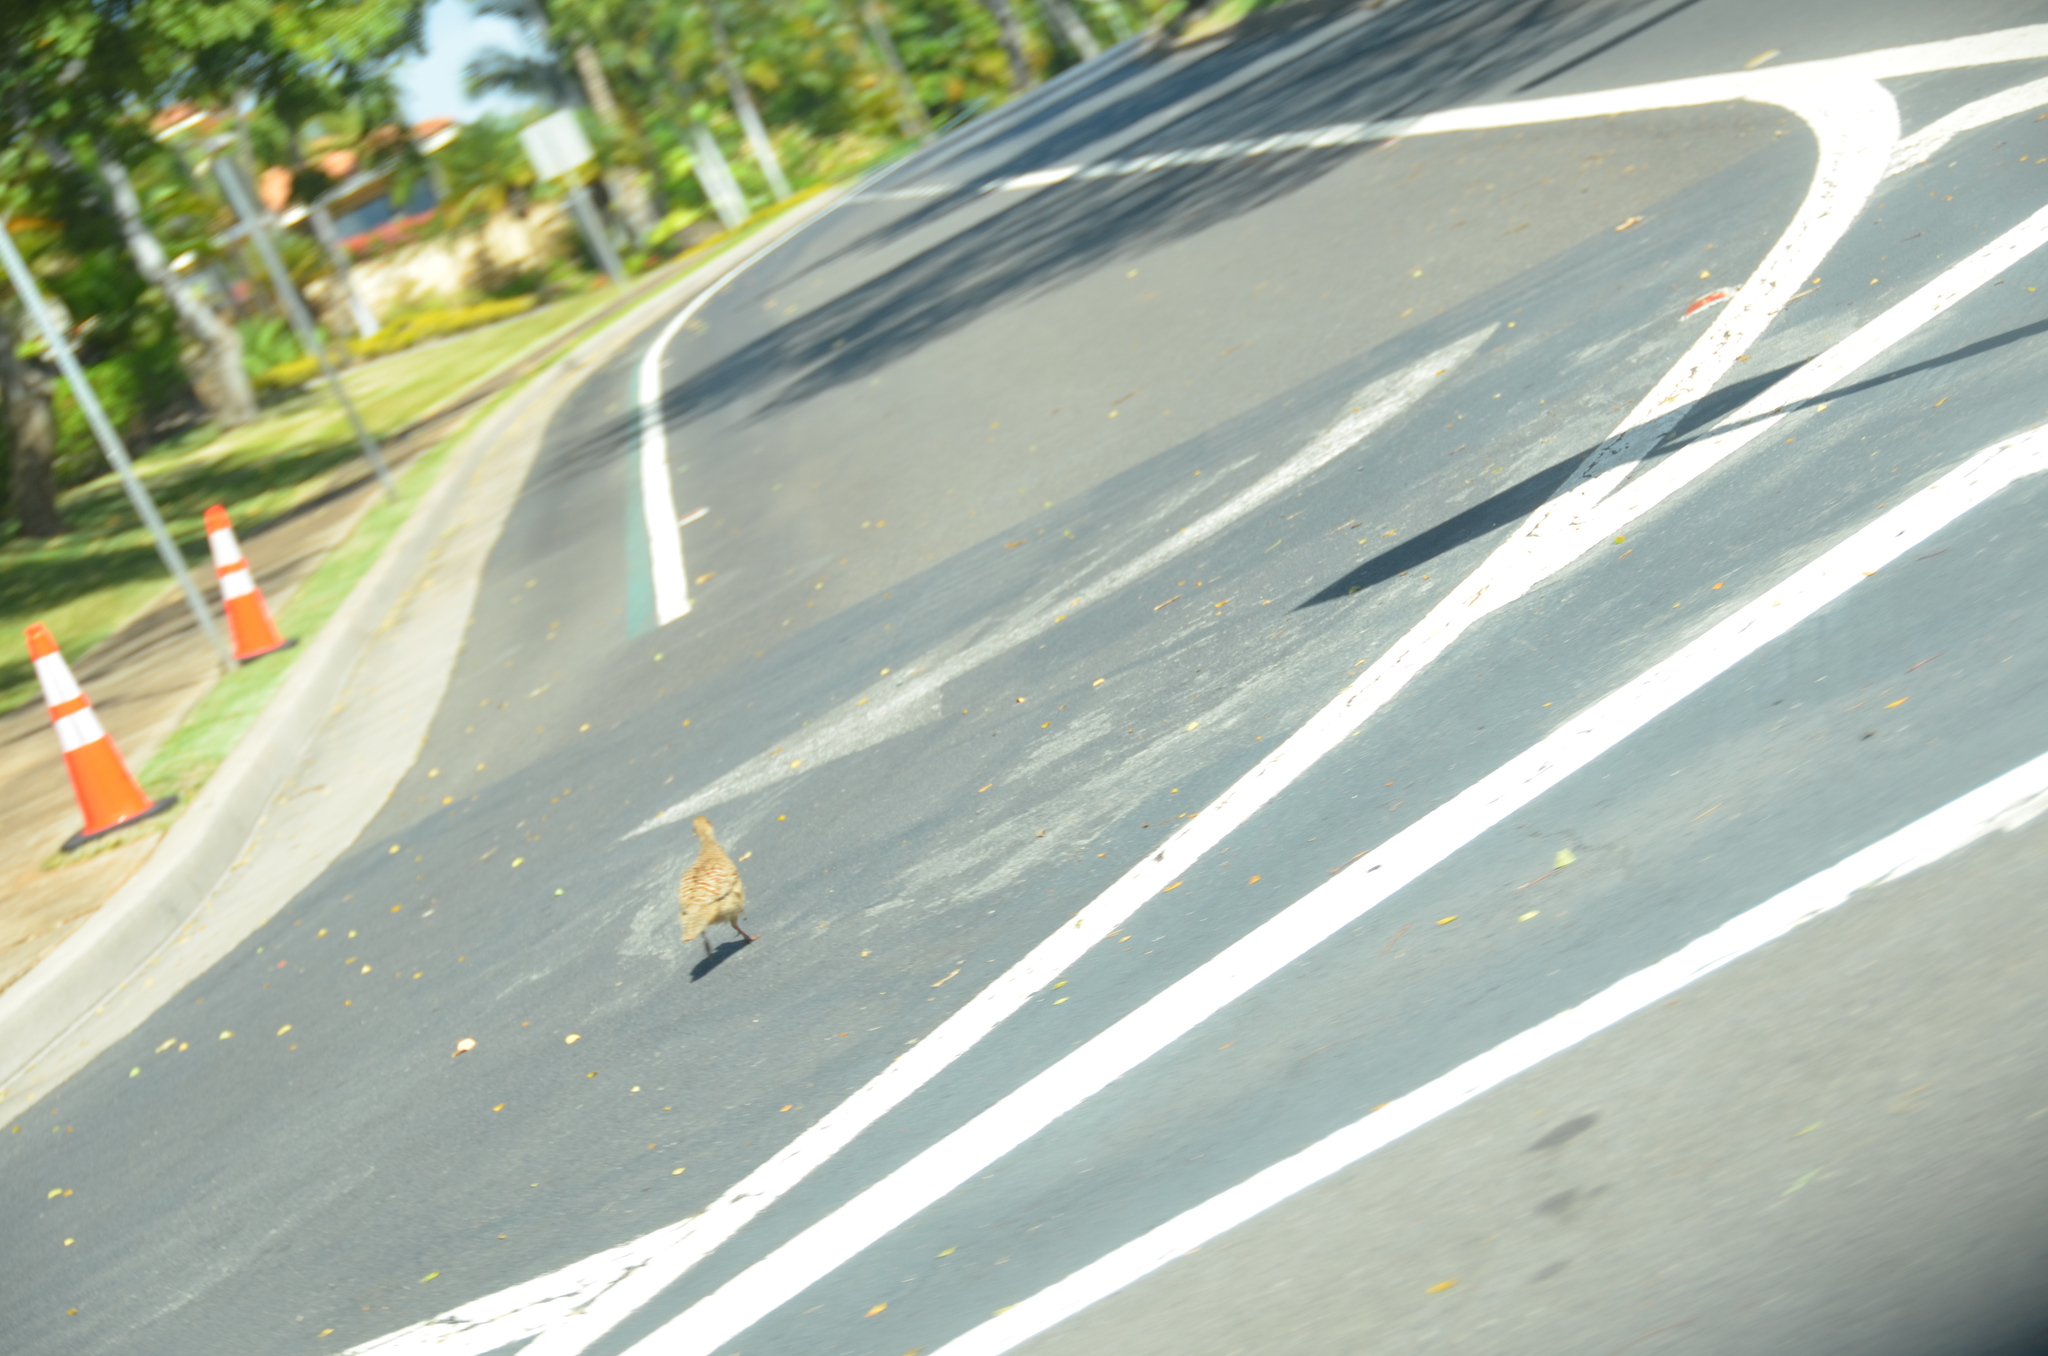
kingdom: Animalia
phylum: Chordata
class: Aves
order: Galliformes
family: Phasianidae
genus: Ortygornis
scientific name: Ortygornis pondicerianus
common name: Grey francolin
